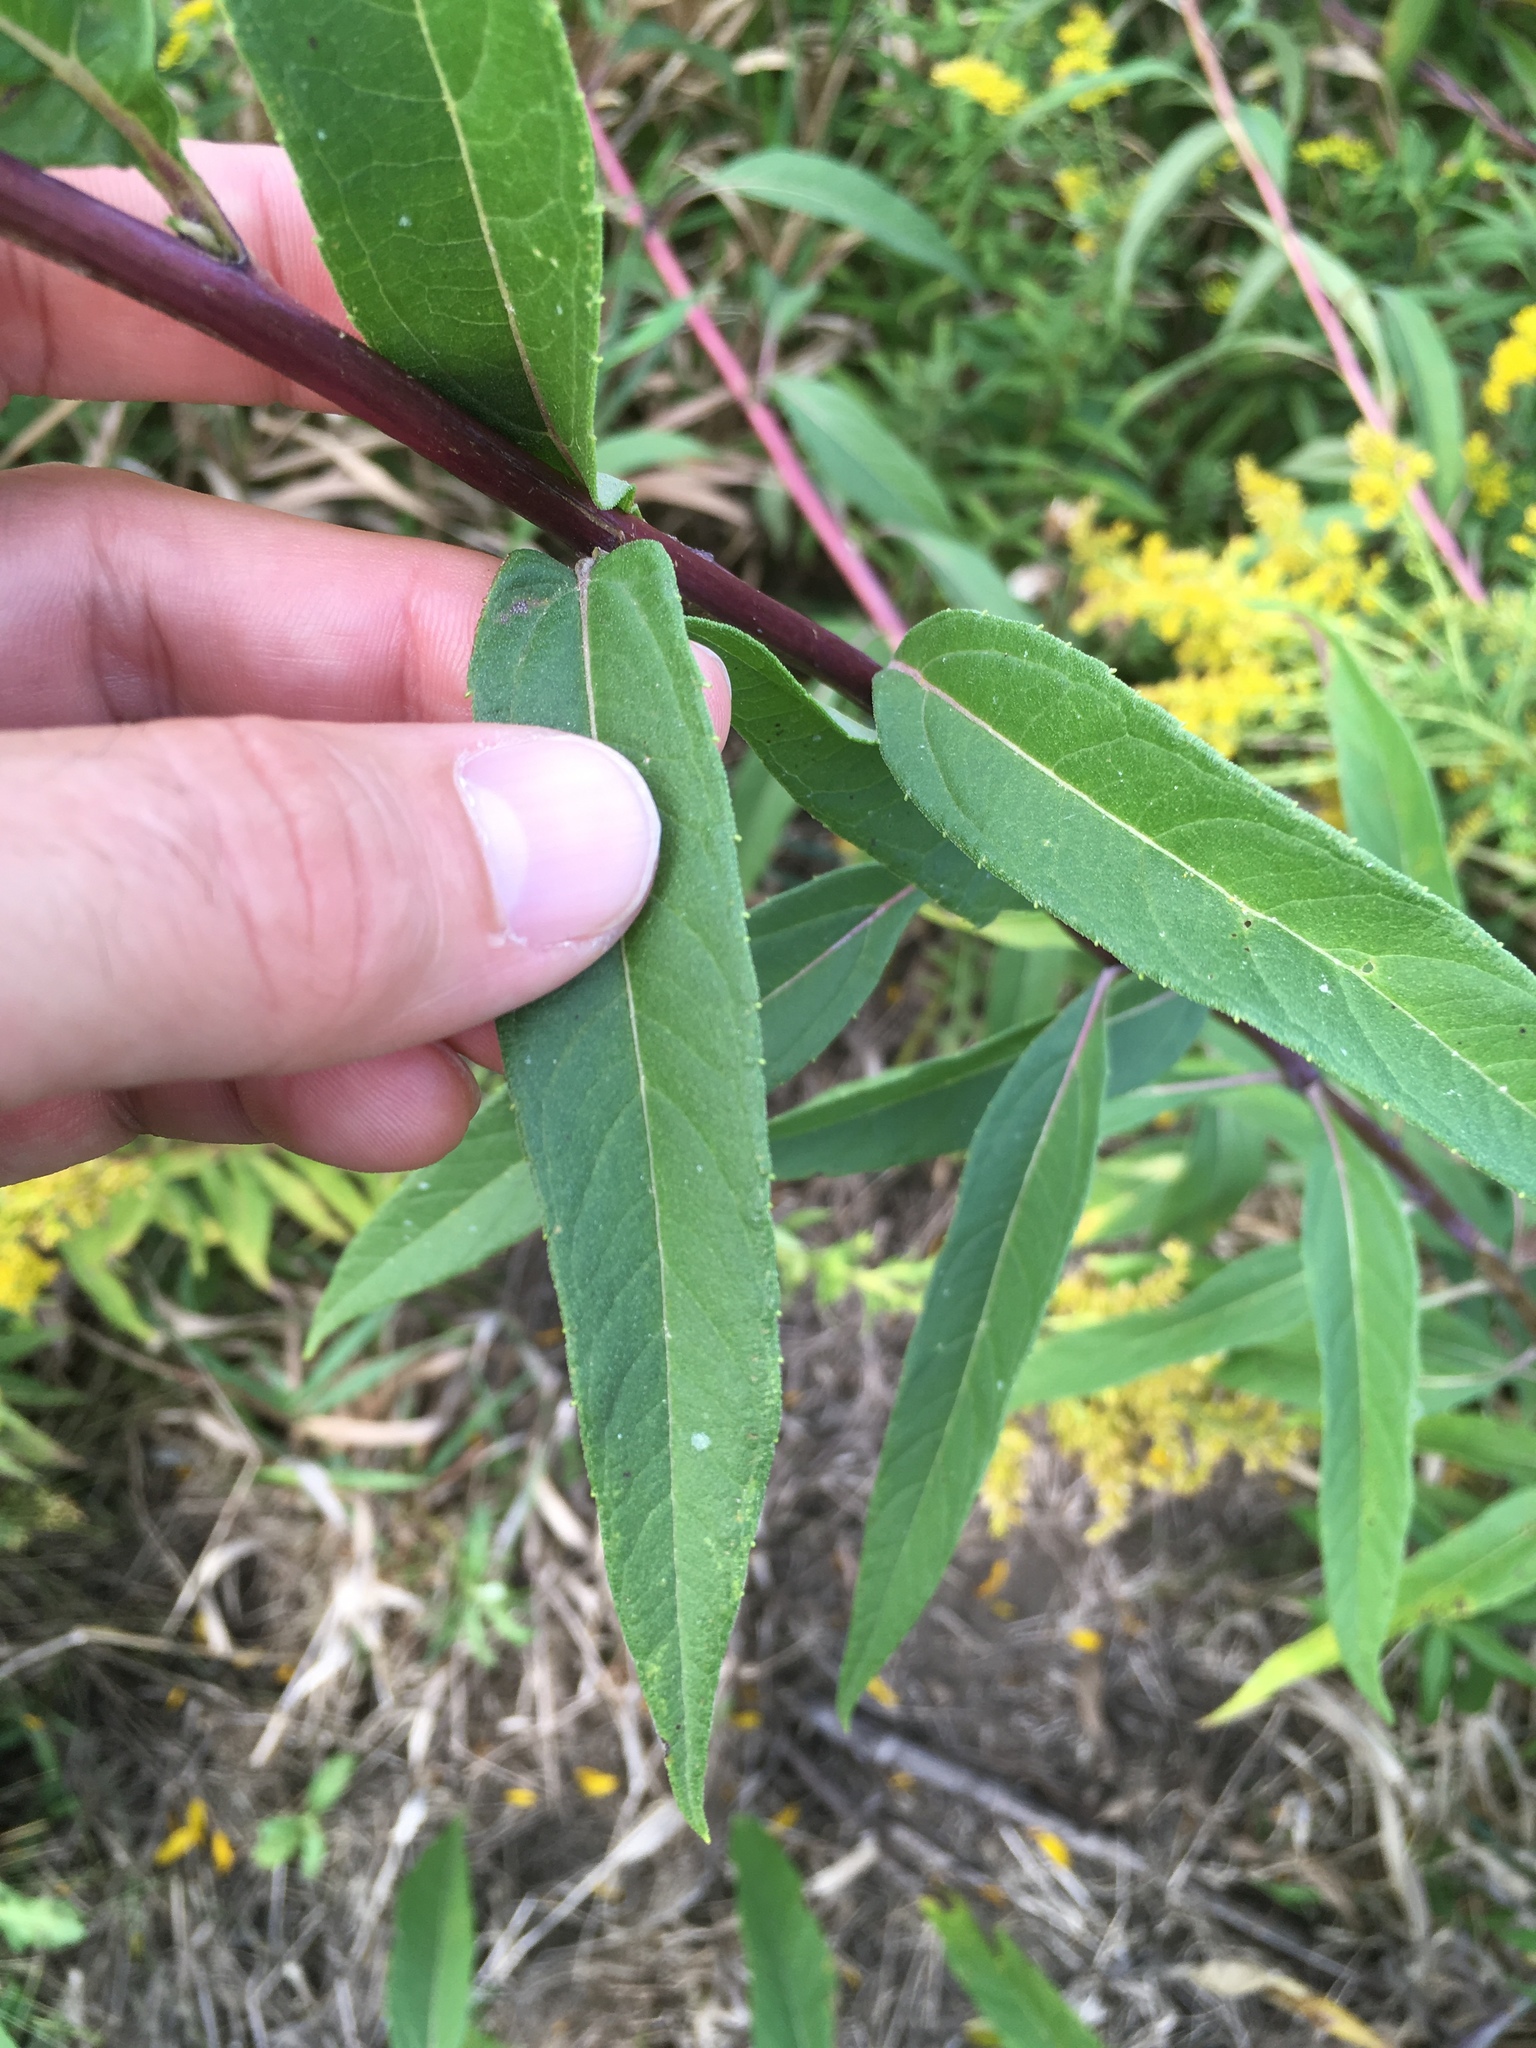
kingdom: Plantae
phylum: Tracheophyta
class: Magnoliopsida
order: Asterales
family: Asteraceae
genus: Helianthus
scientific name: Helianthus grosseserratus
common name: Sawtooth sunflower
